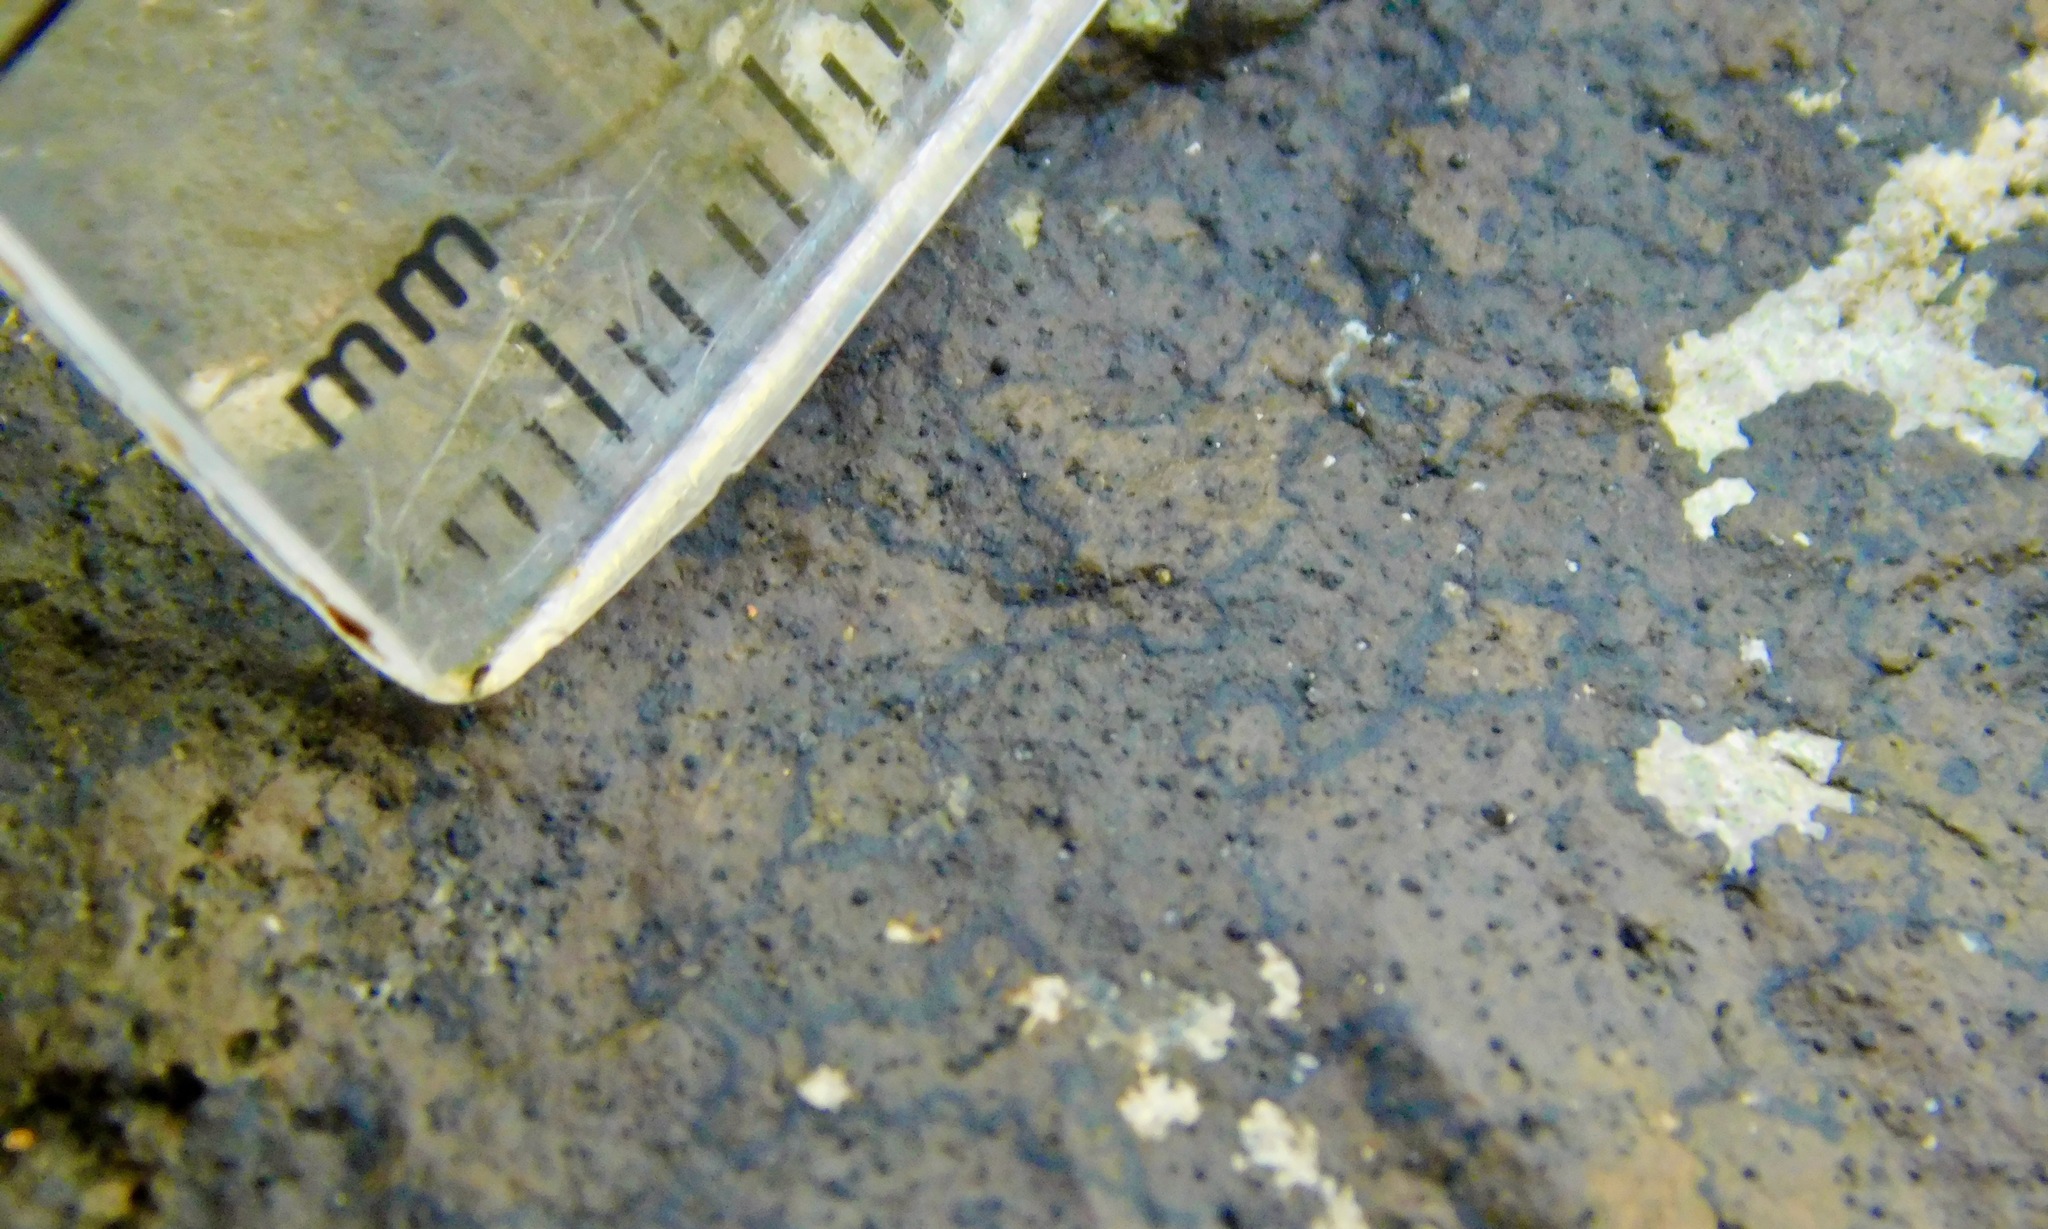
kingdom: Fungi
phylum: Ascomycota
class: Lecanoromycetes
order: Ostropales
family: Porinaceae
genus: Pseudosagedia
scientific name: Pseudosagedia guentheri
